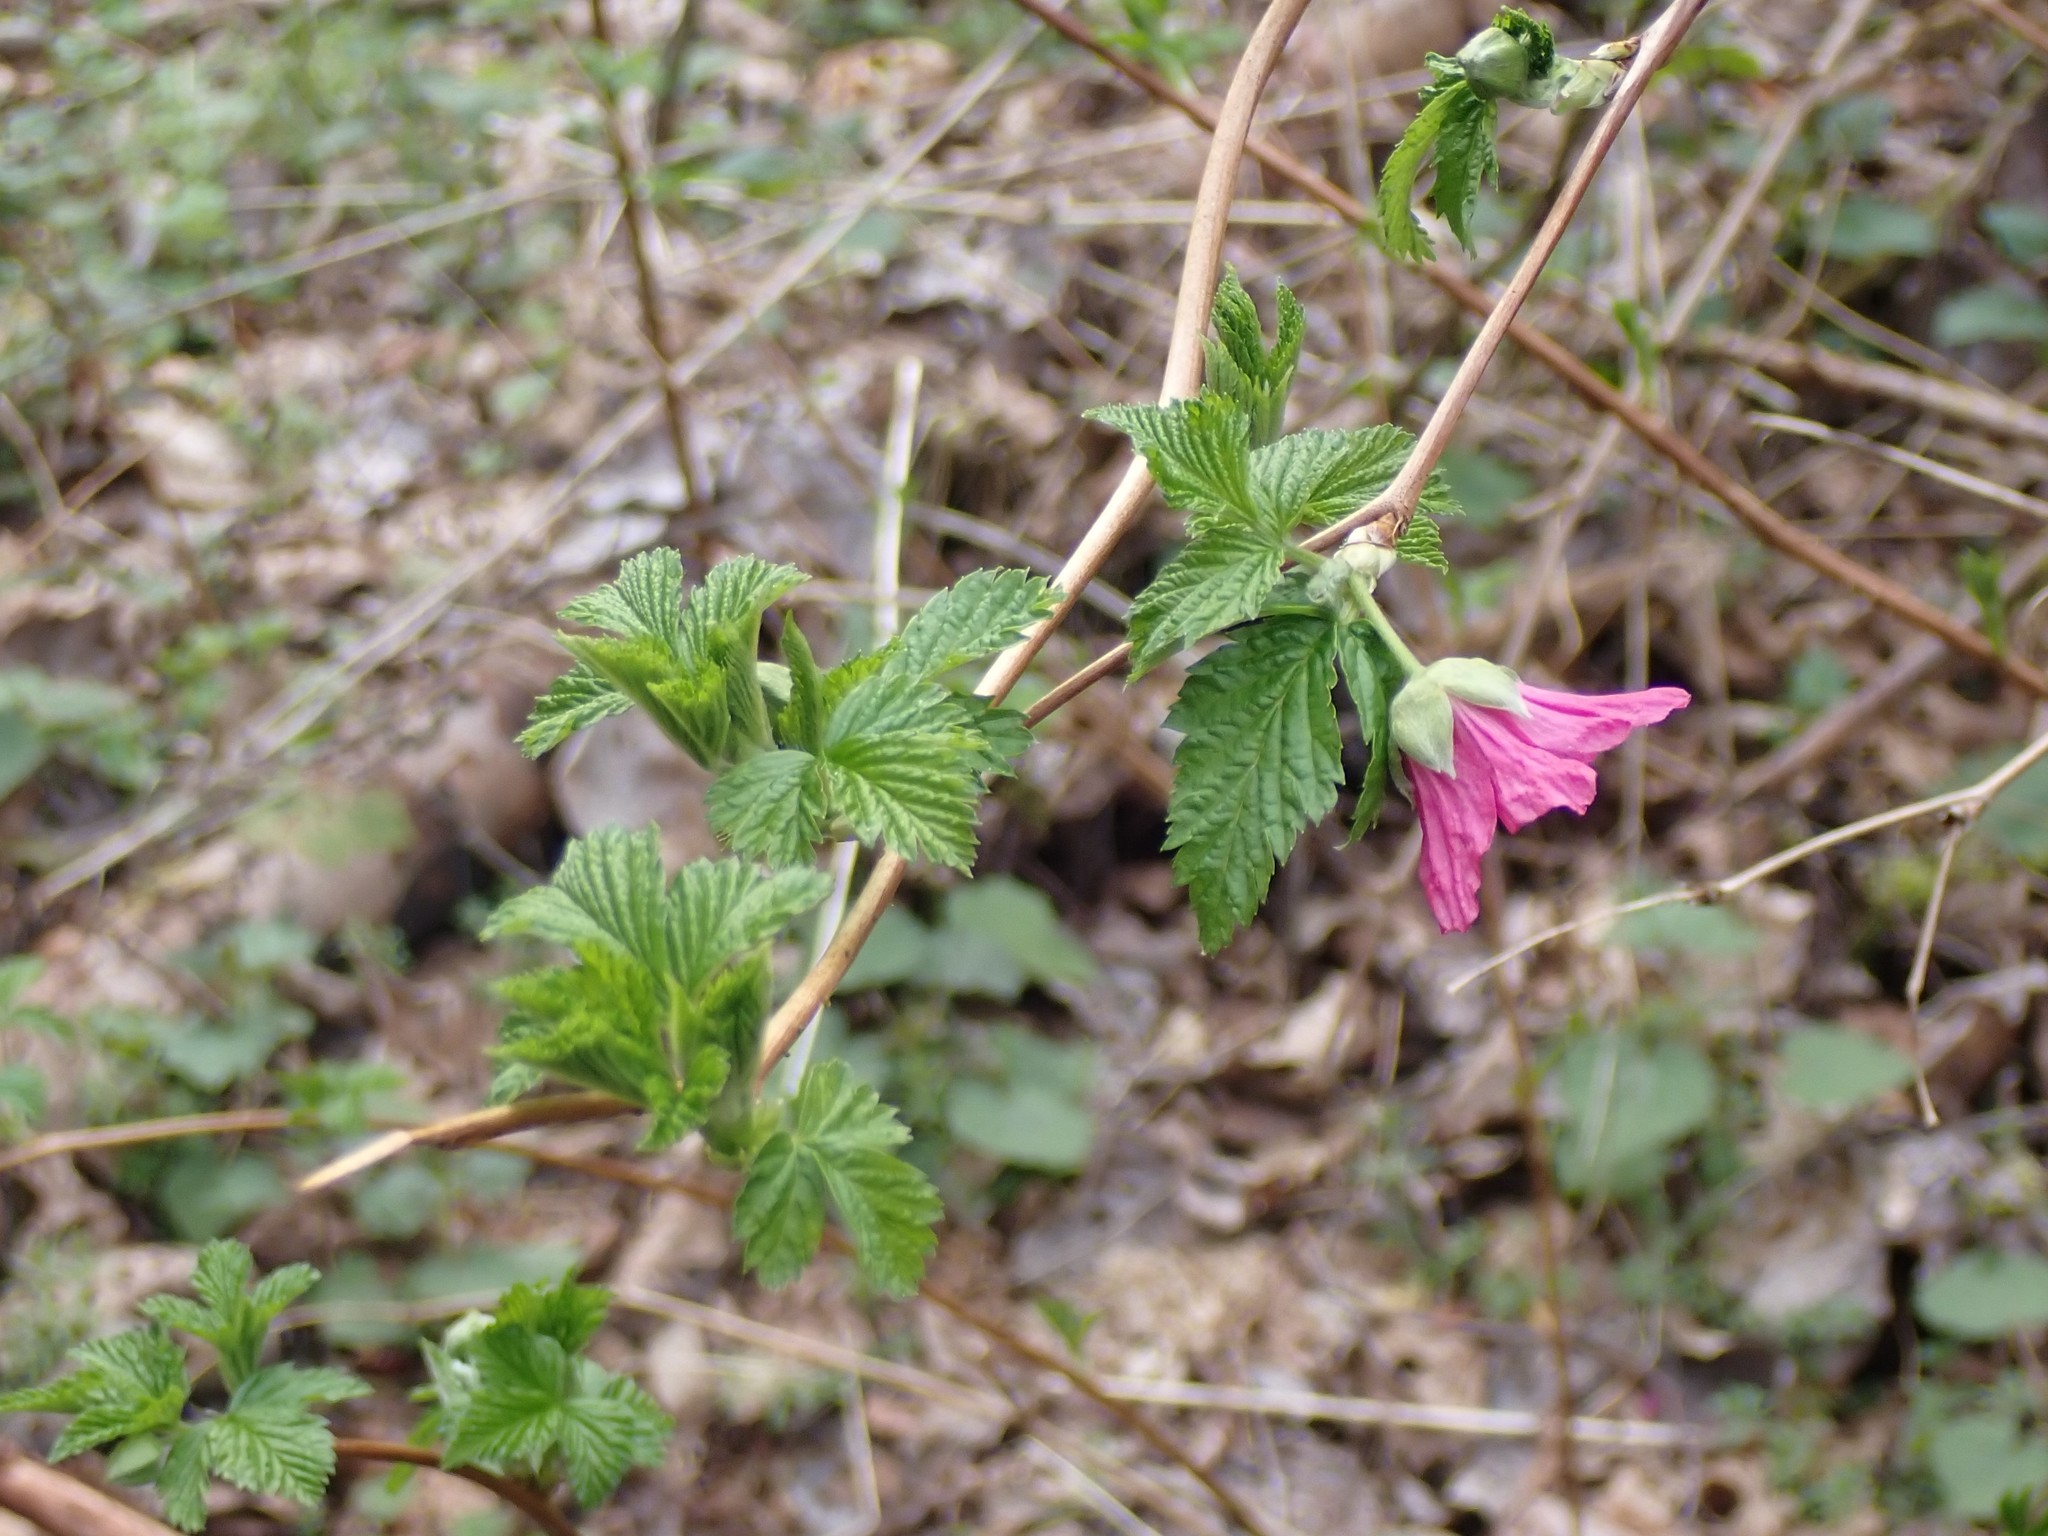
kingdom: Plantae
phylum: Tracheophyta
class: Magnoliopsida
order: Rosales
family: Rosaceae
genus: Rubus
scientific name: Rubus spectabilis
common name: Salmonberry
